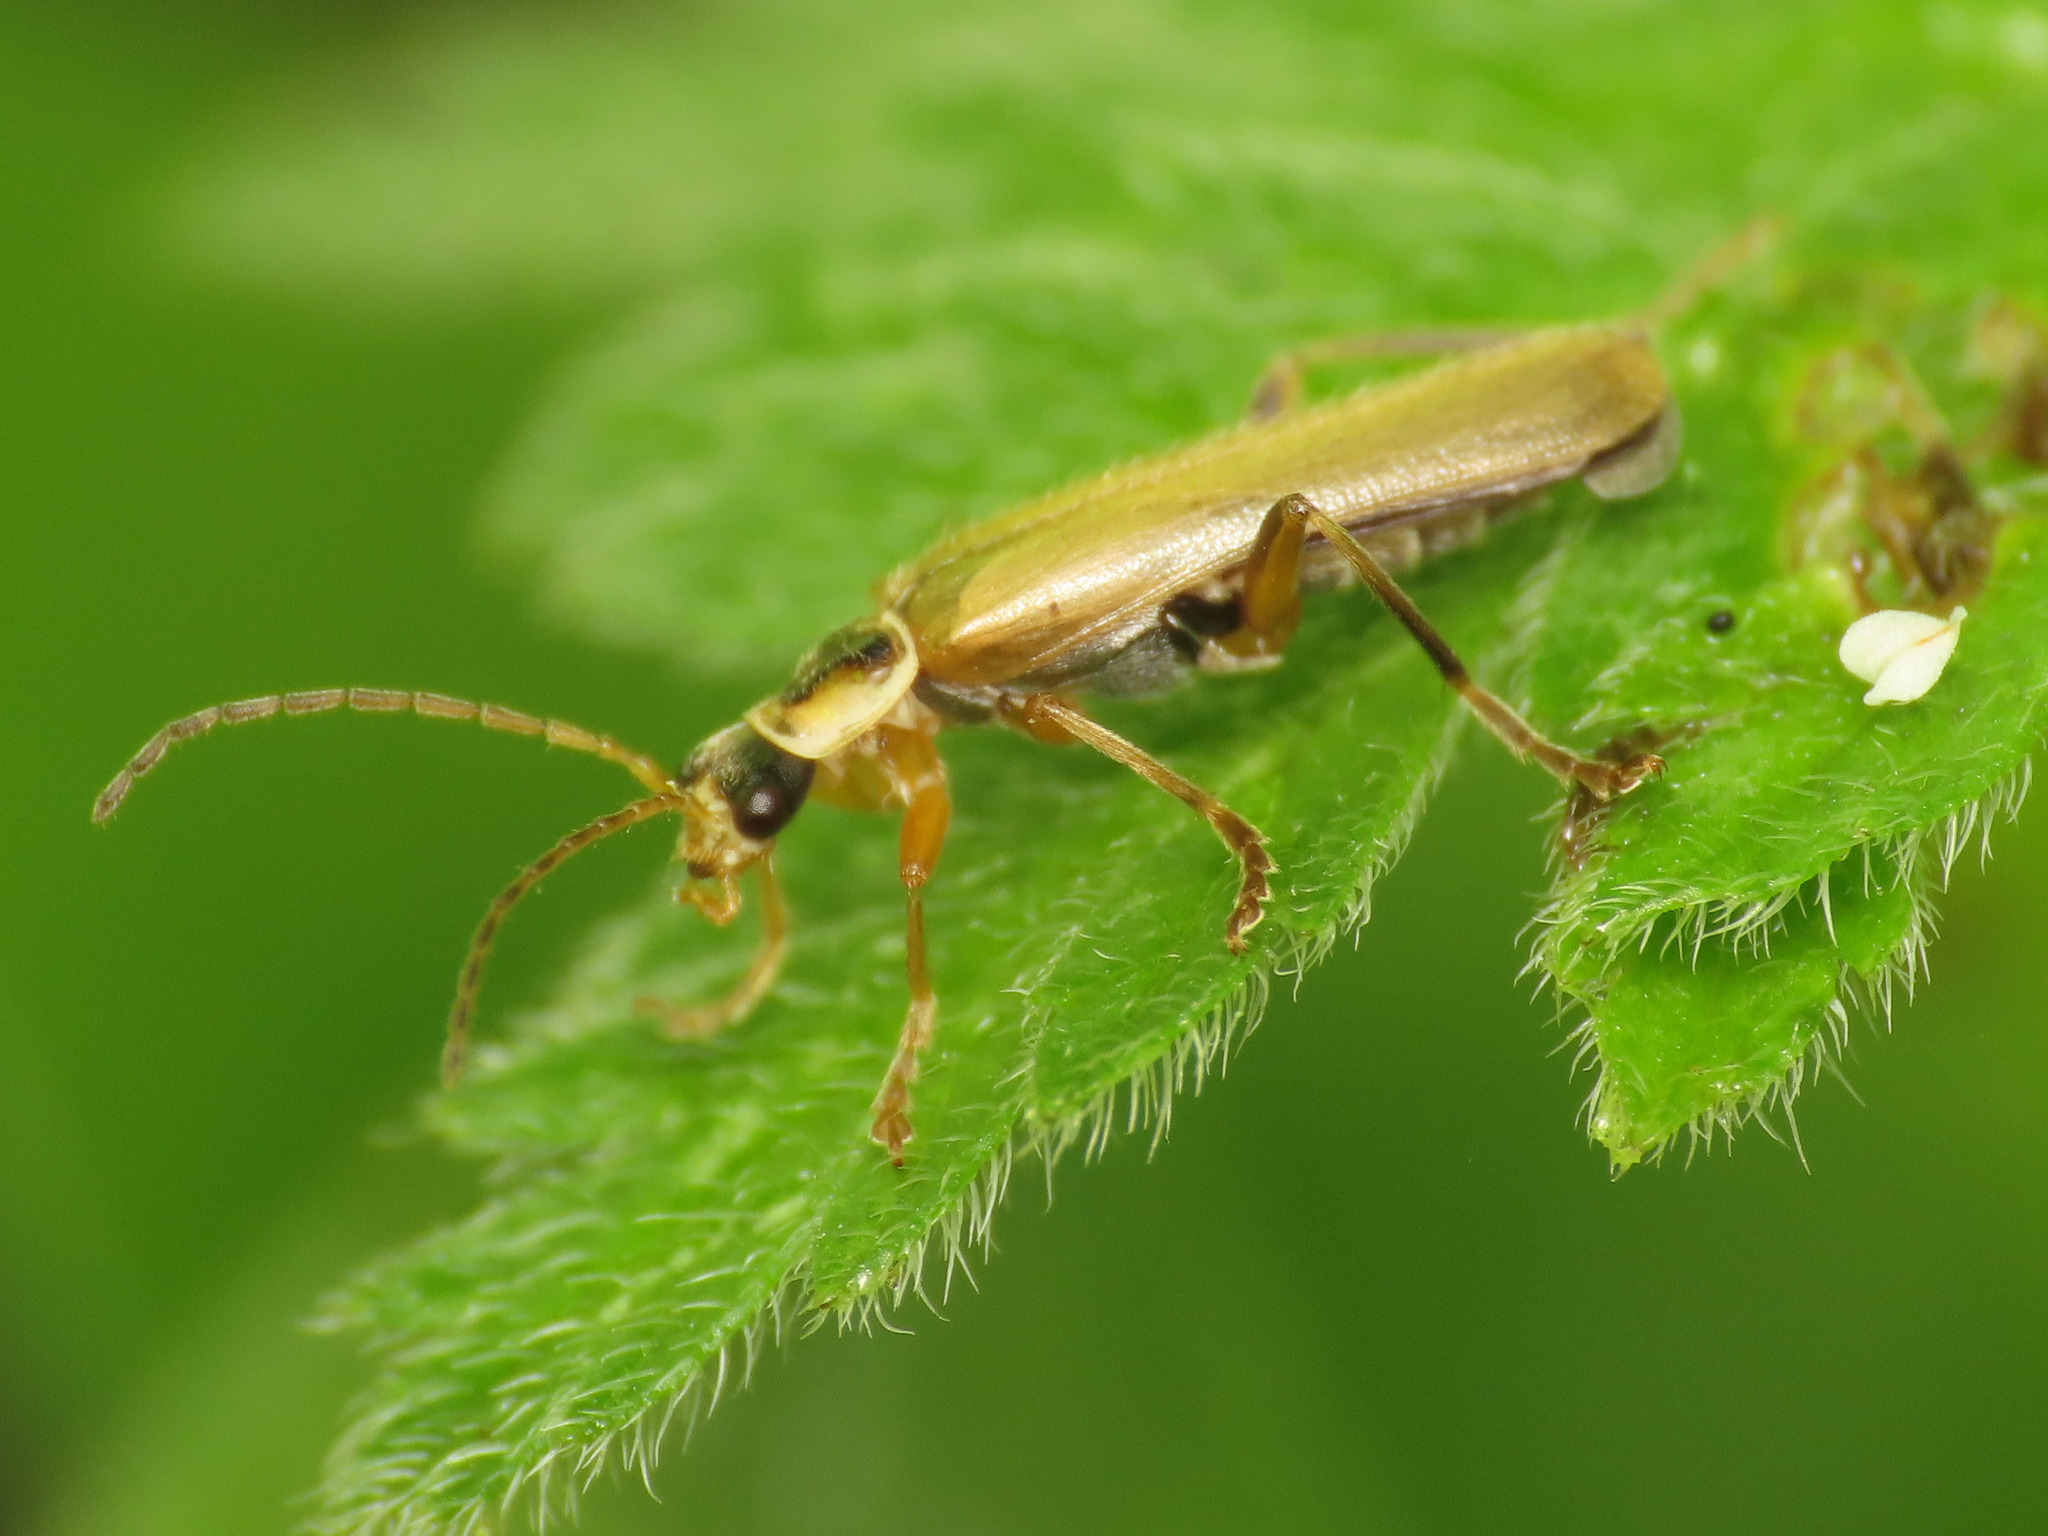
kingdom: Animalia
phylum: Arthropoda
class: Insecta
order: Coleoptera
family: Cantharidae
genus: Cantharis
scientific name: Cantharis decipiens
